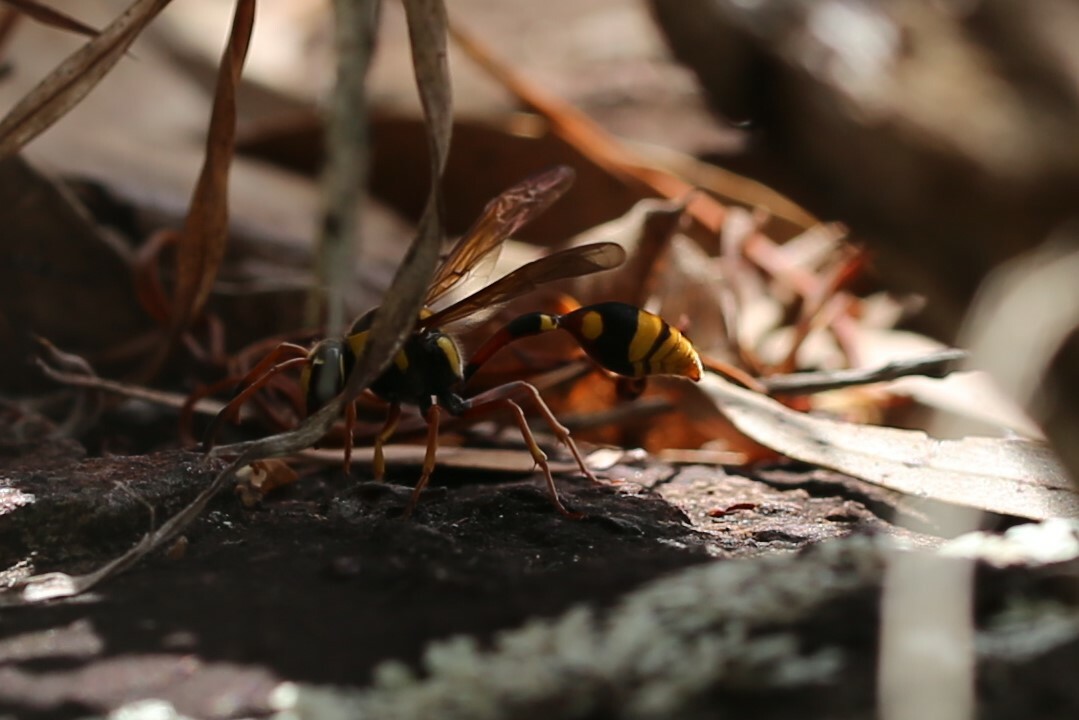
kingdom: Animalia
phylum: Arthropoda
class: Insecta
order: Hymenoptera
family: Eumenidae
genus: Delta
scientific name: Delta campaniforme
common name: Yellow and black potter wasp
